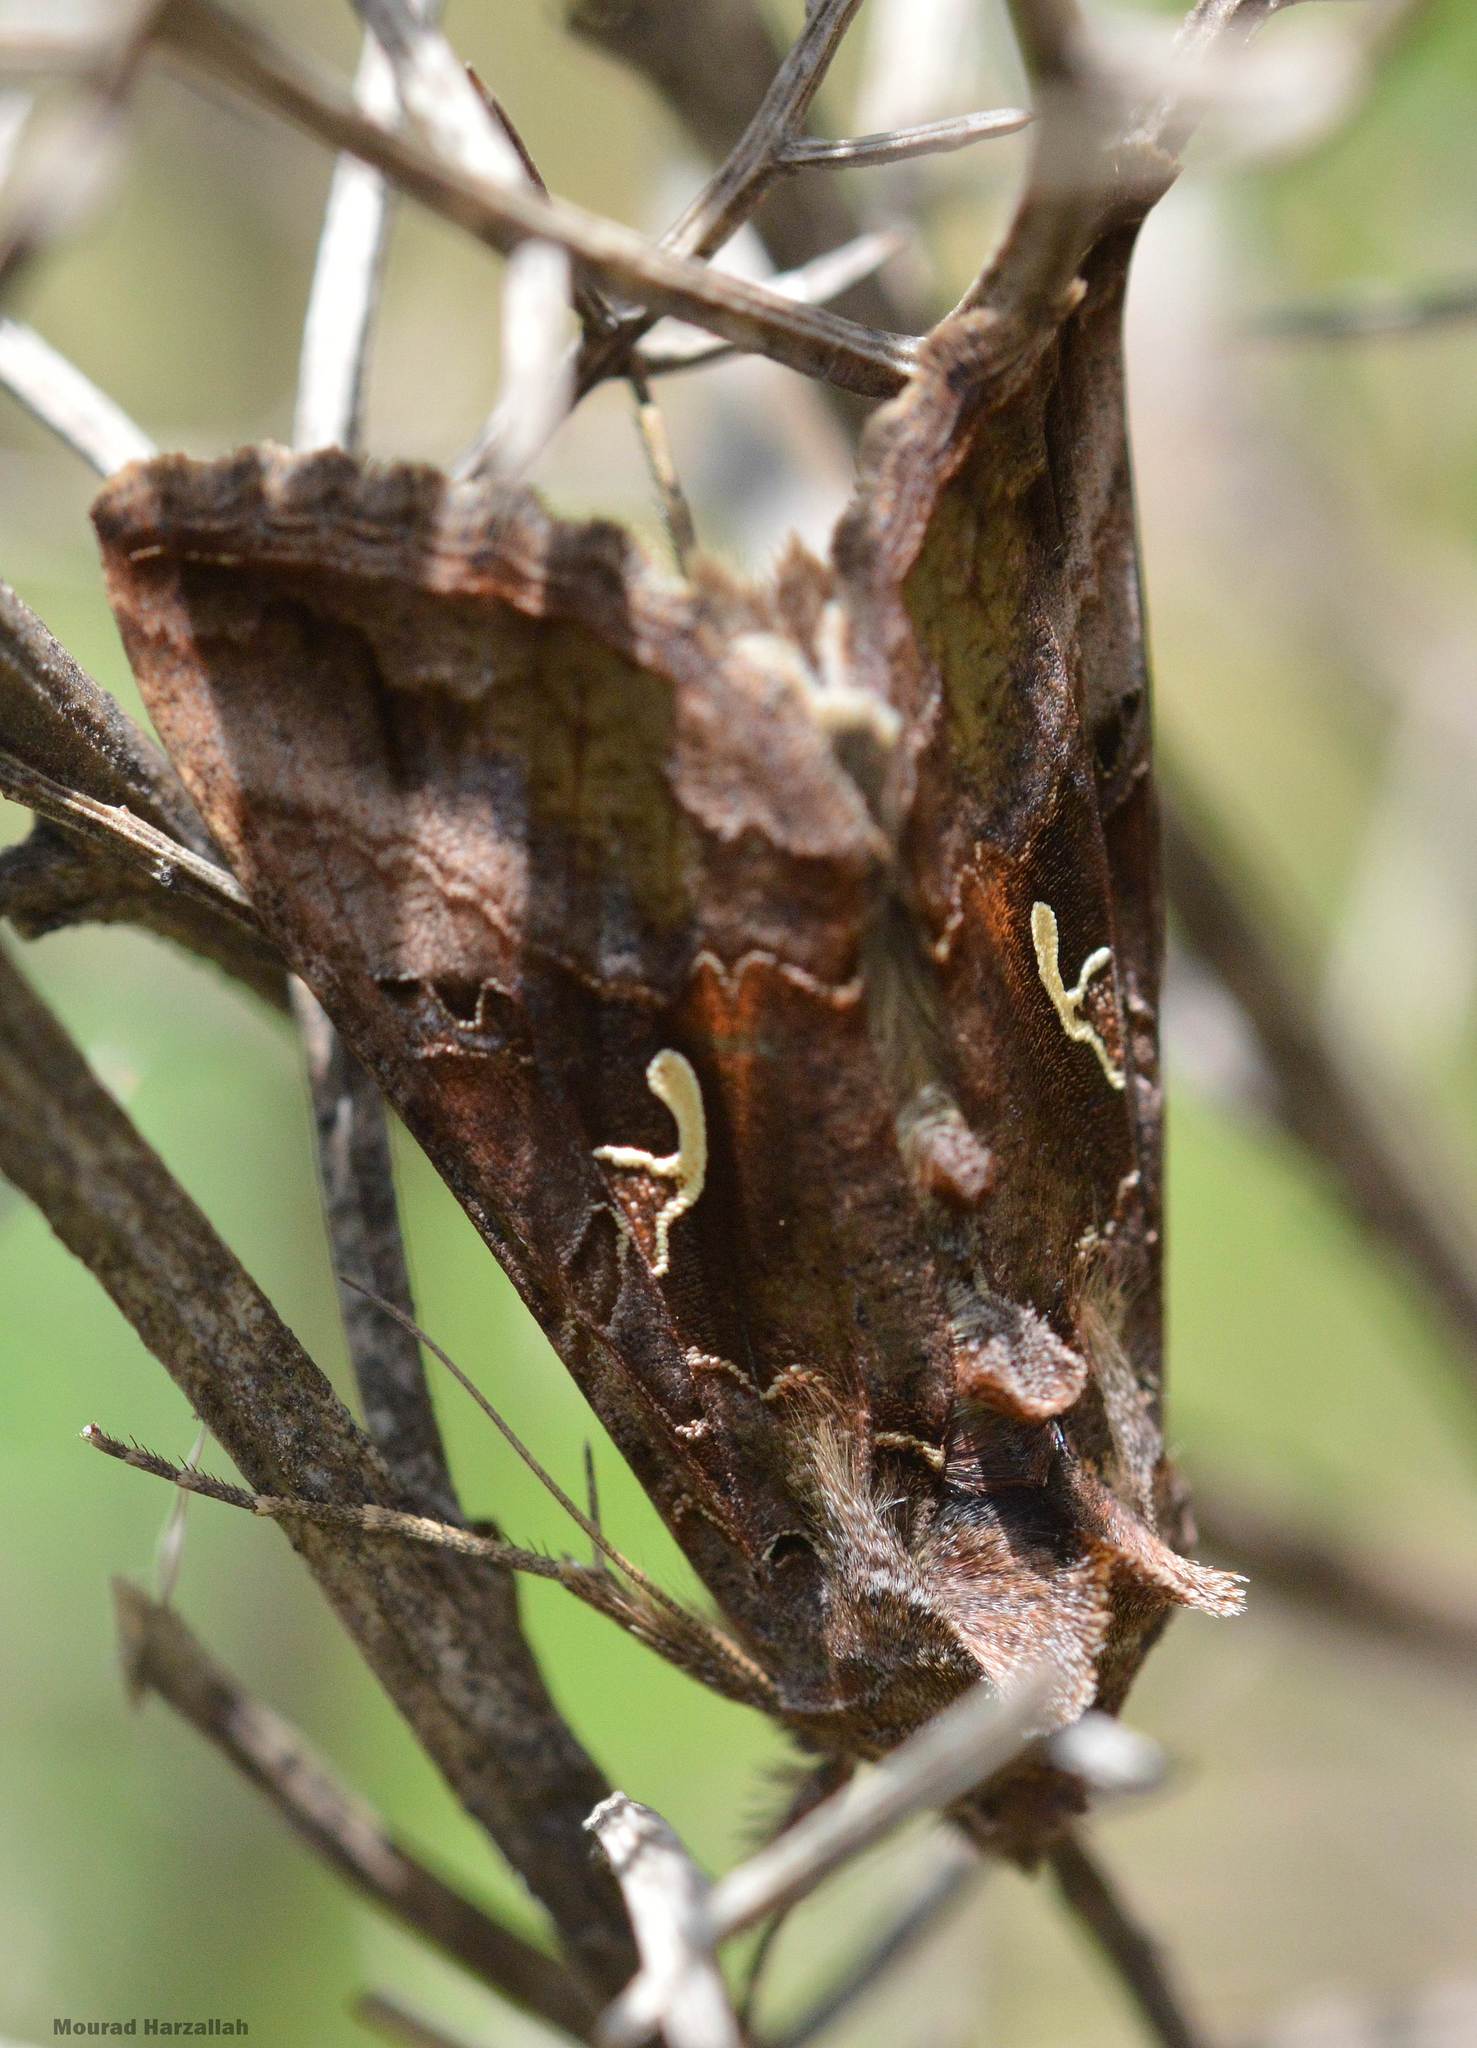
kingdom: Animalia
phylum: Arthropoda
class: Insecta
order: Lepidoptera
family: Noctuidae
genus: Autographa
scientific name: Autographa gamma
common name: Silver y
